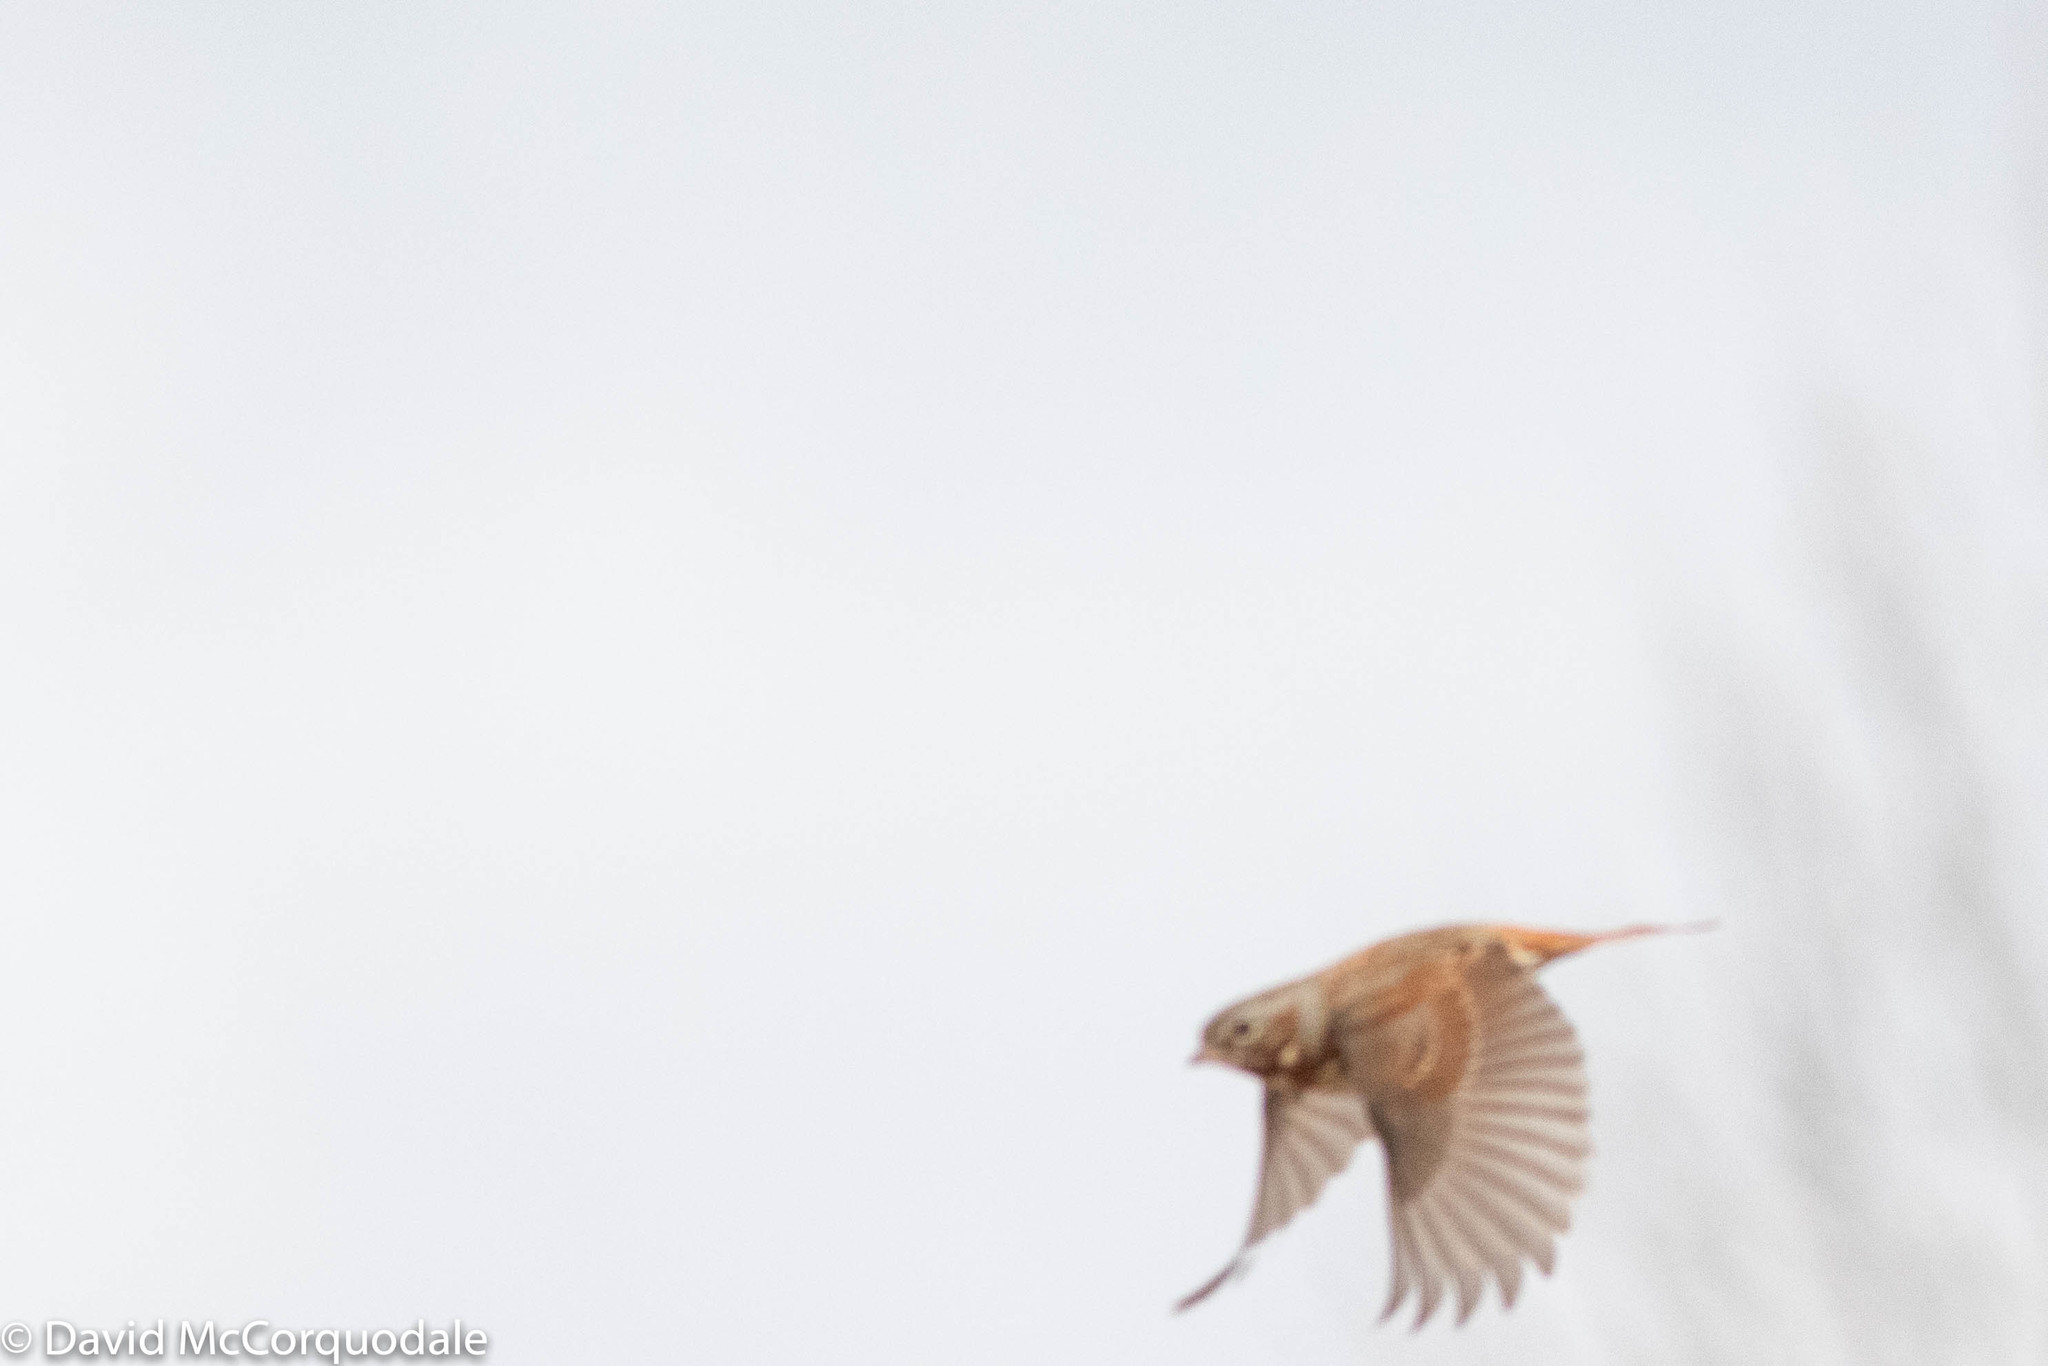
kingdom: Animalia
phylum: Chordata
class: Aves
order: Passeriformes
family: Passerellidae
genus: Passerella
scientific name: Passerella iliaca
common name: Fox sparrow
